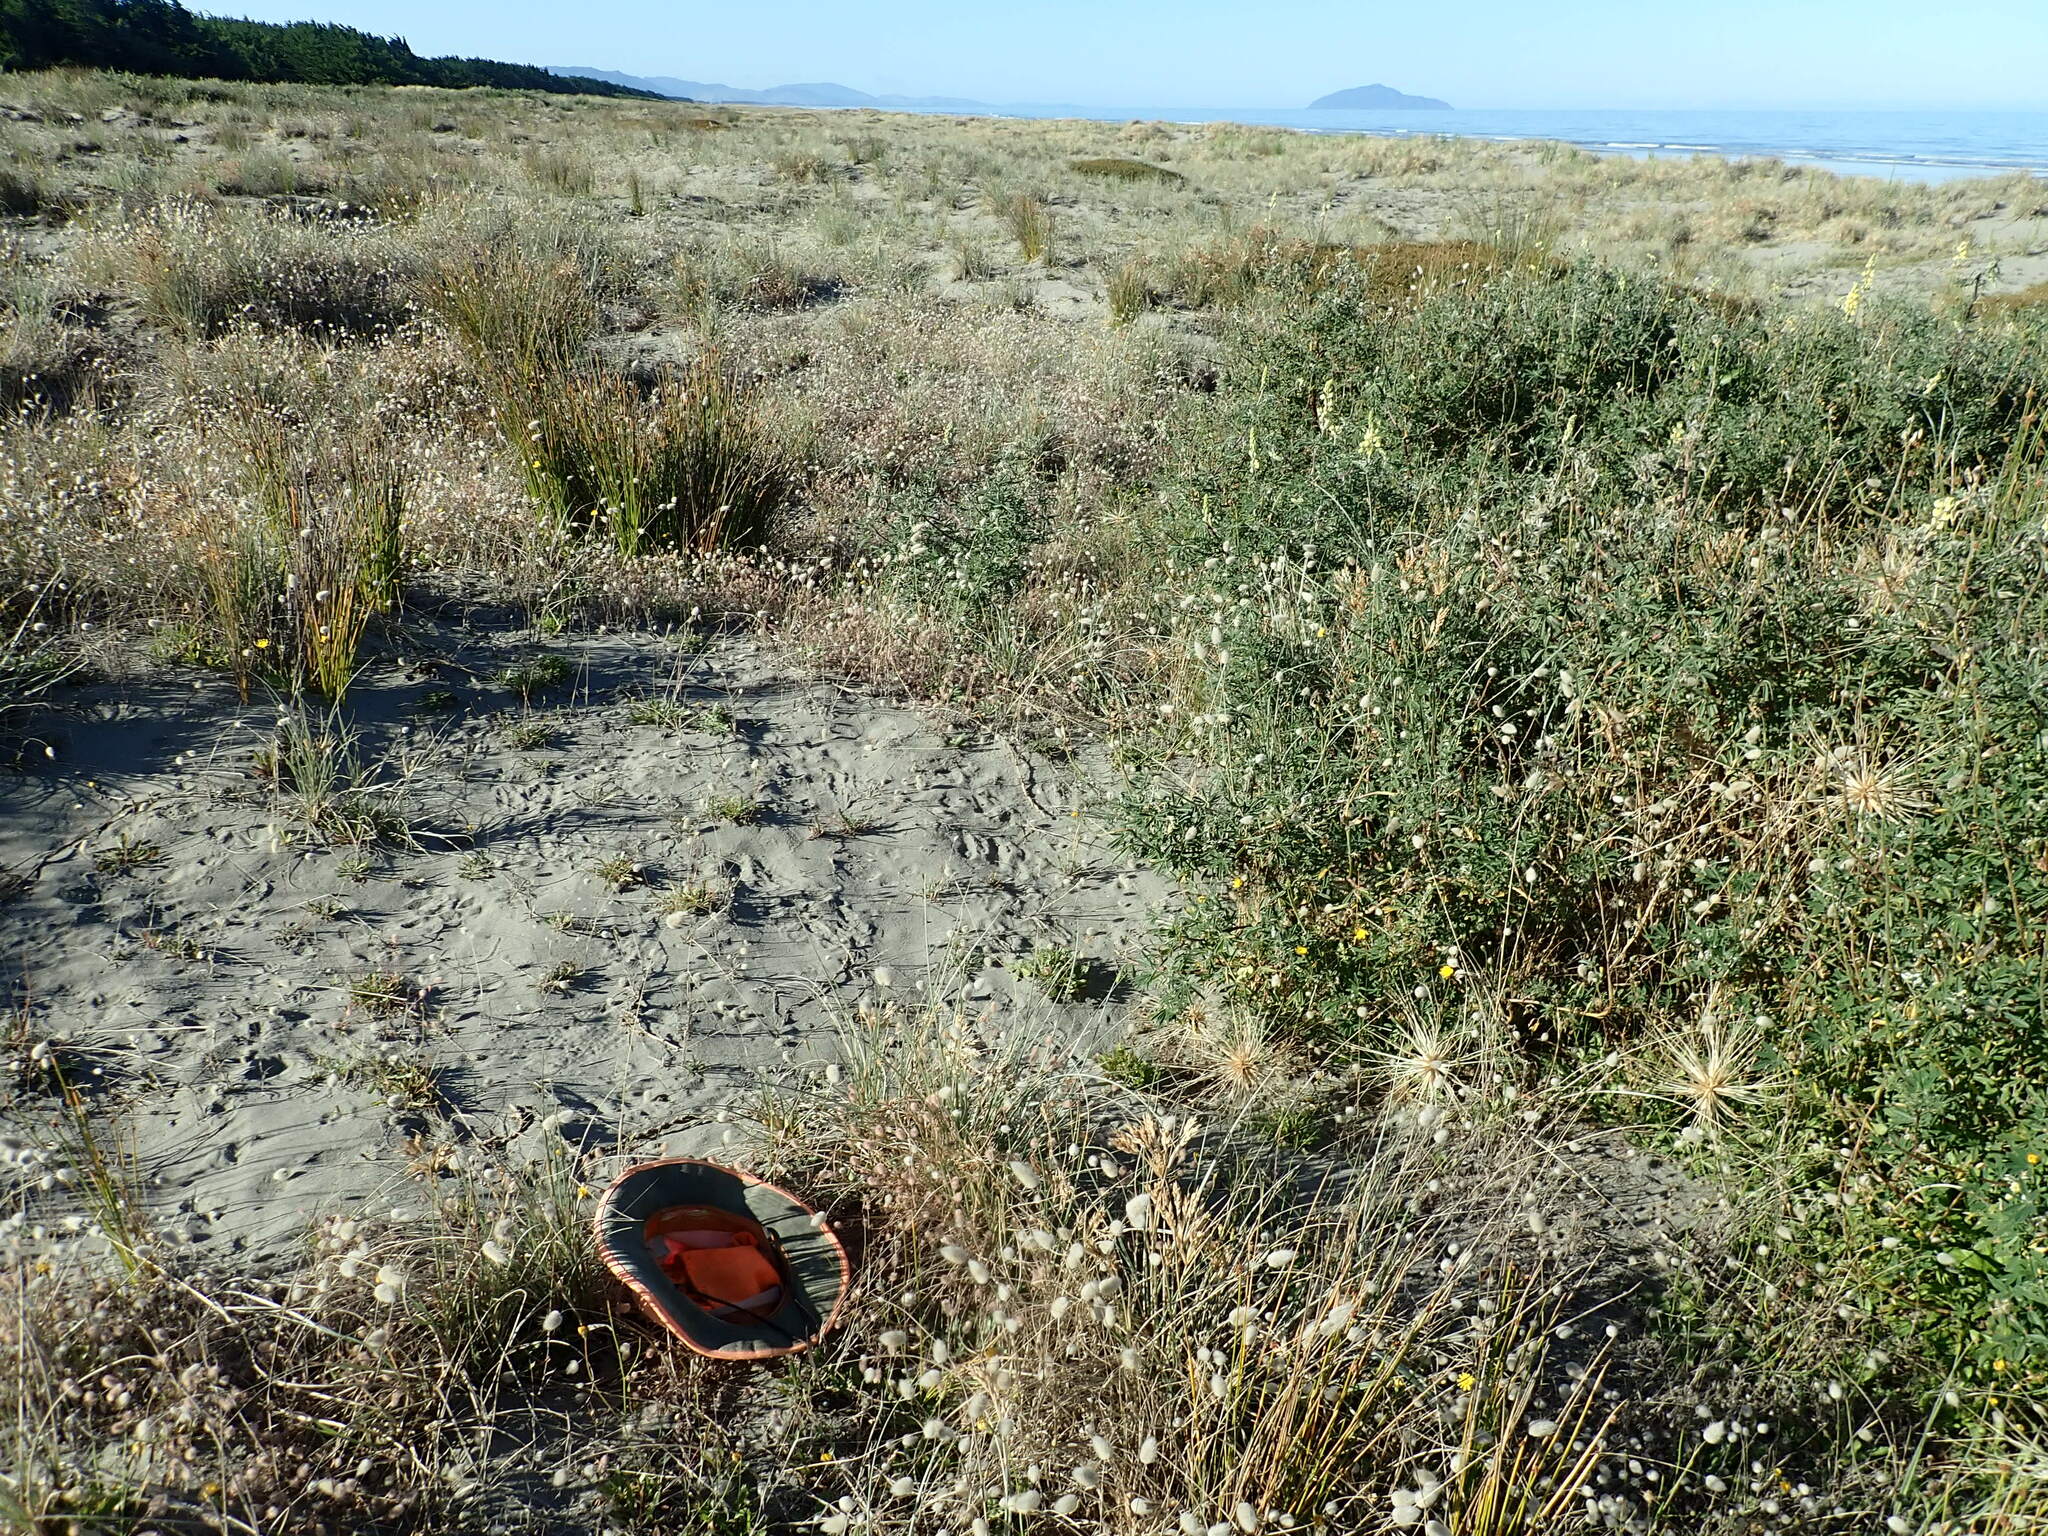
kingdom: Plantae
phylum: Tracheophyta
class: Magnoliopsida
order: Fabales
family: Fabaceae
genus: Trifolium
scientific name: Trifolium arvense
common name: Hare's-foot clover
